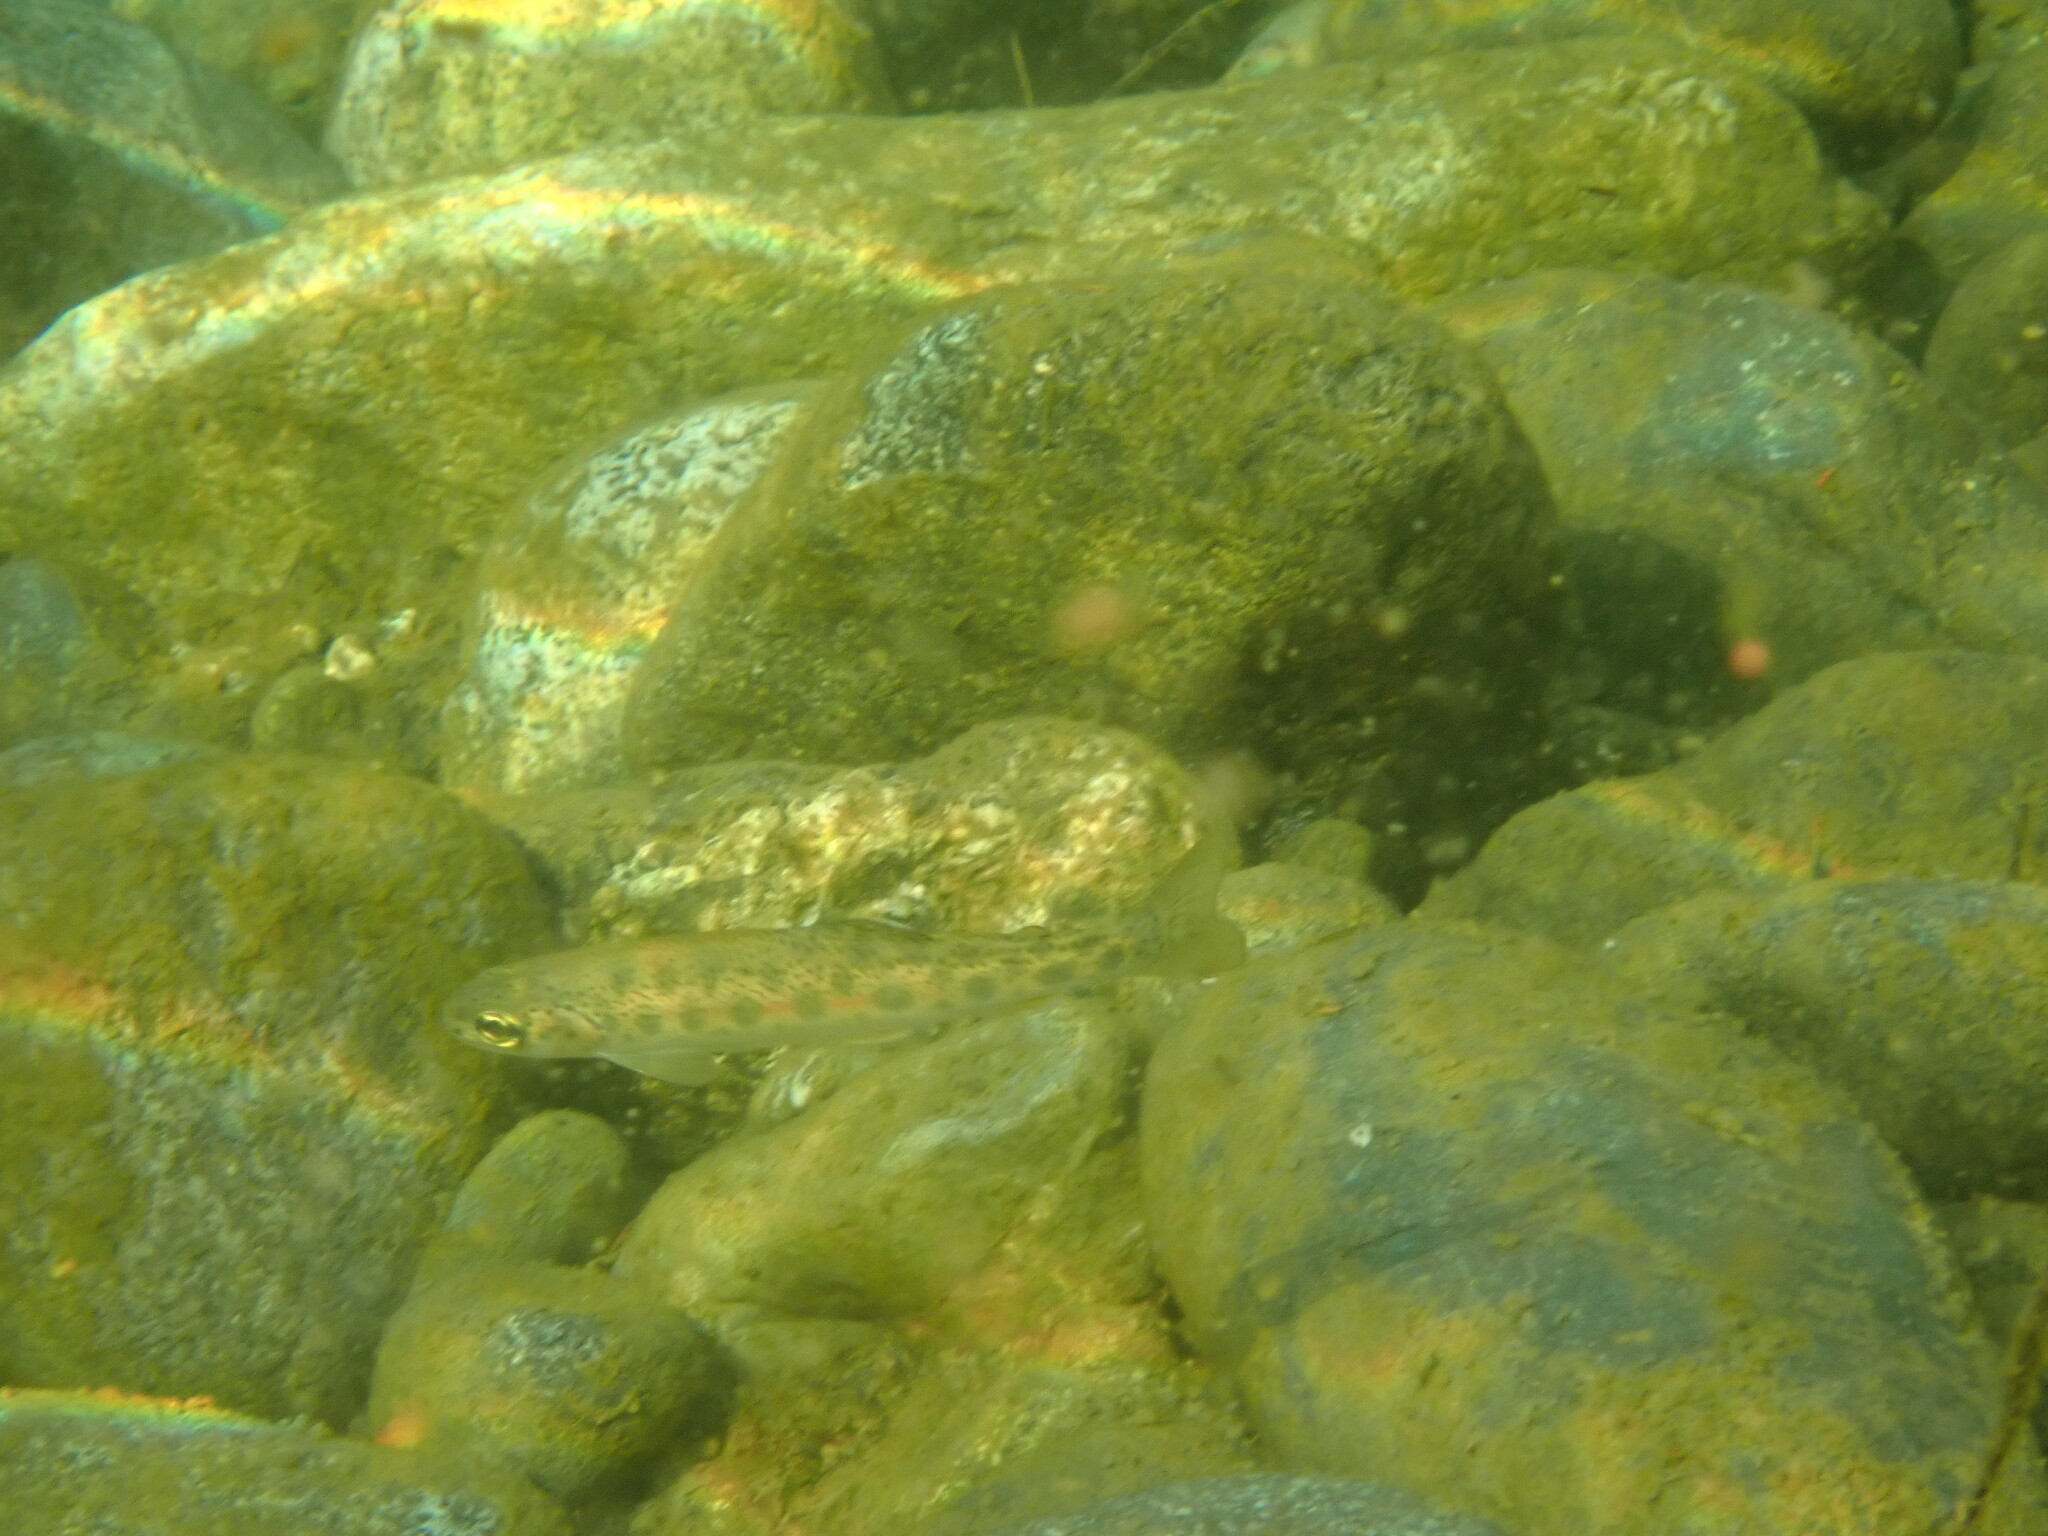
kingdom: Animalia
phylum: Chordata
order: Salmoniformes
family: Salmonidae
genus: Oncorhynchus
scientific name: Oncorhynchus mykiss
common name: Rainbow trout
